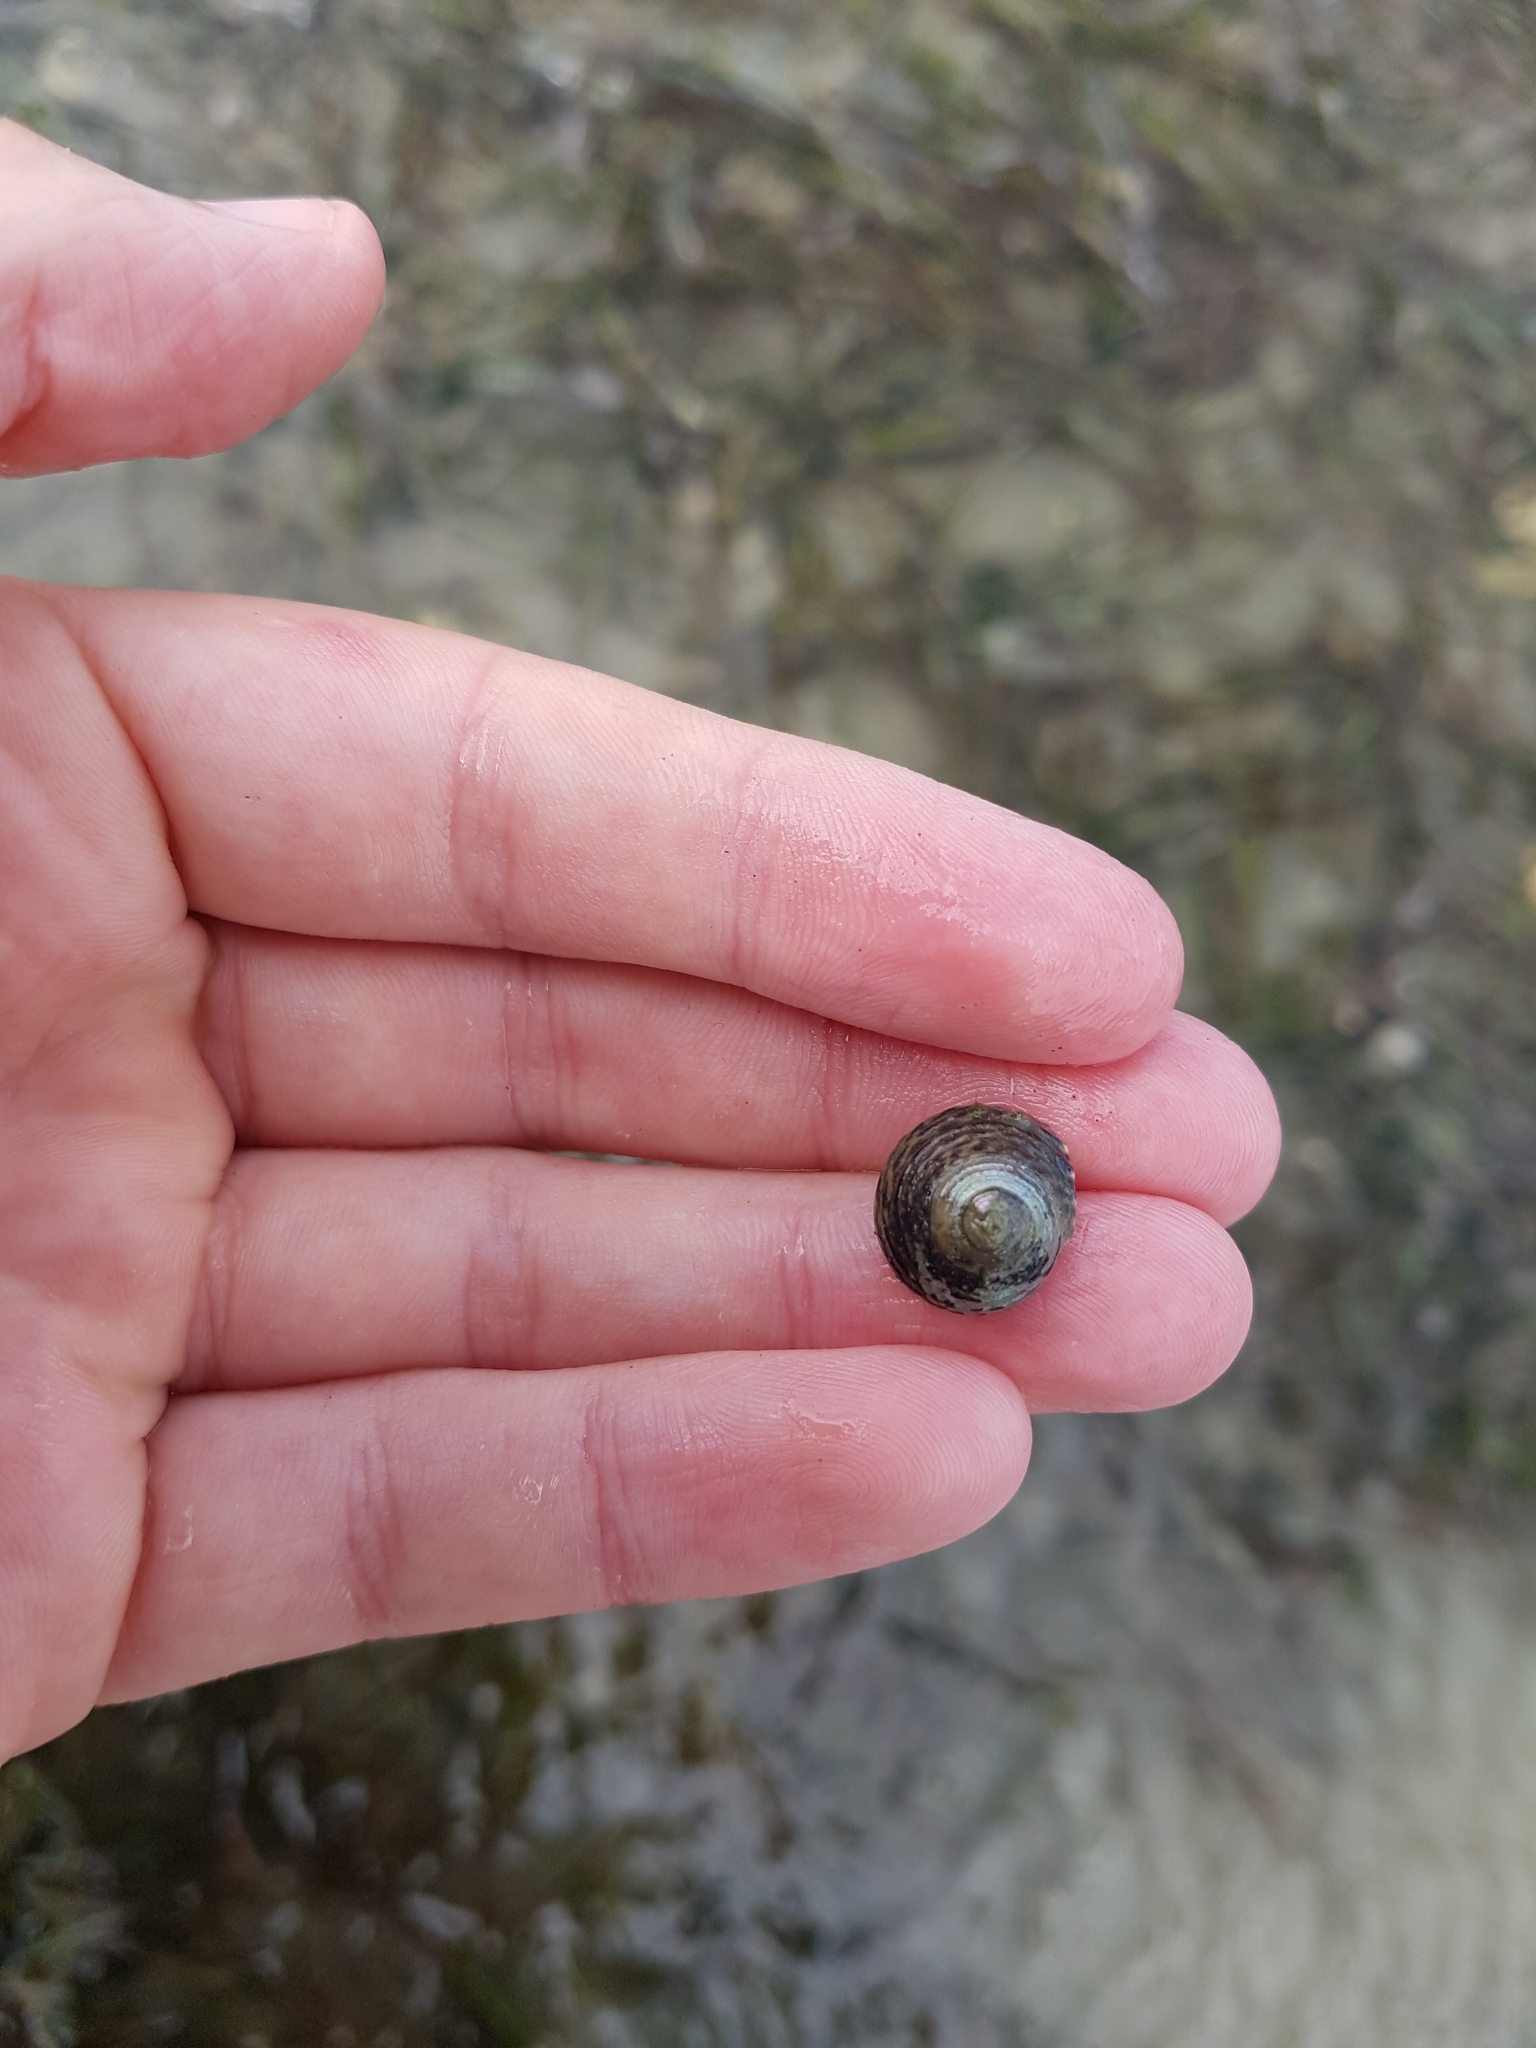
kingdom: Animalia
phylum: Mollusca
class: Gastropoda
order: Trochida
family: Trochidae
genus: Diloma
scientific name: Diloma subrostratum
